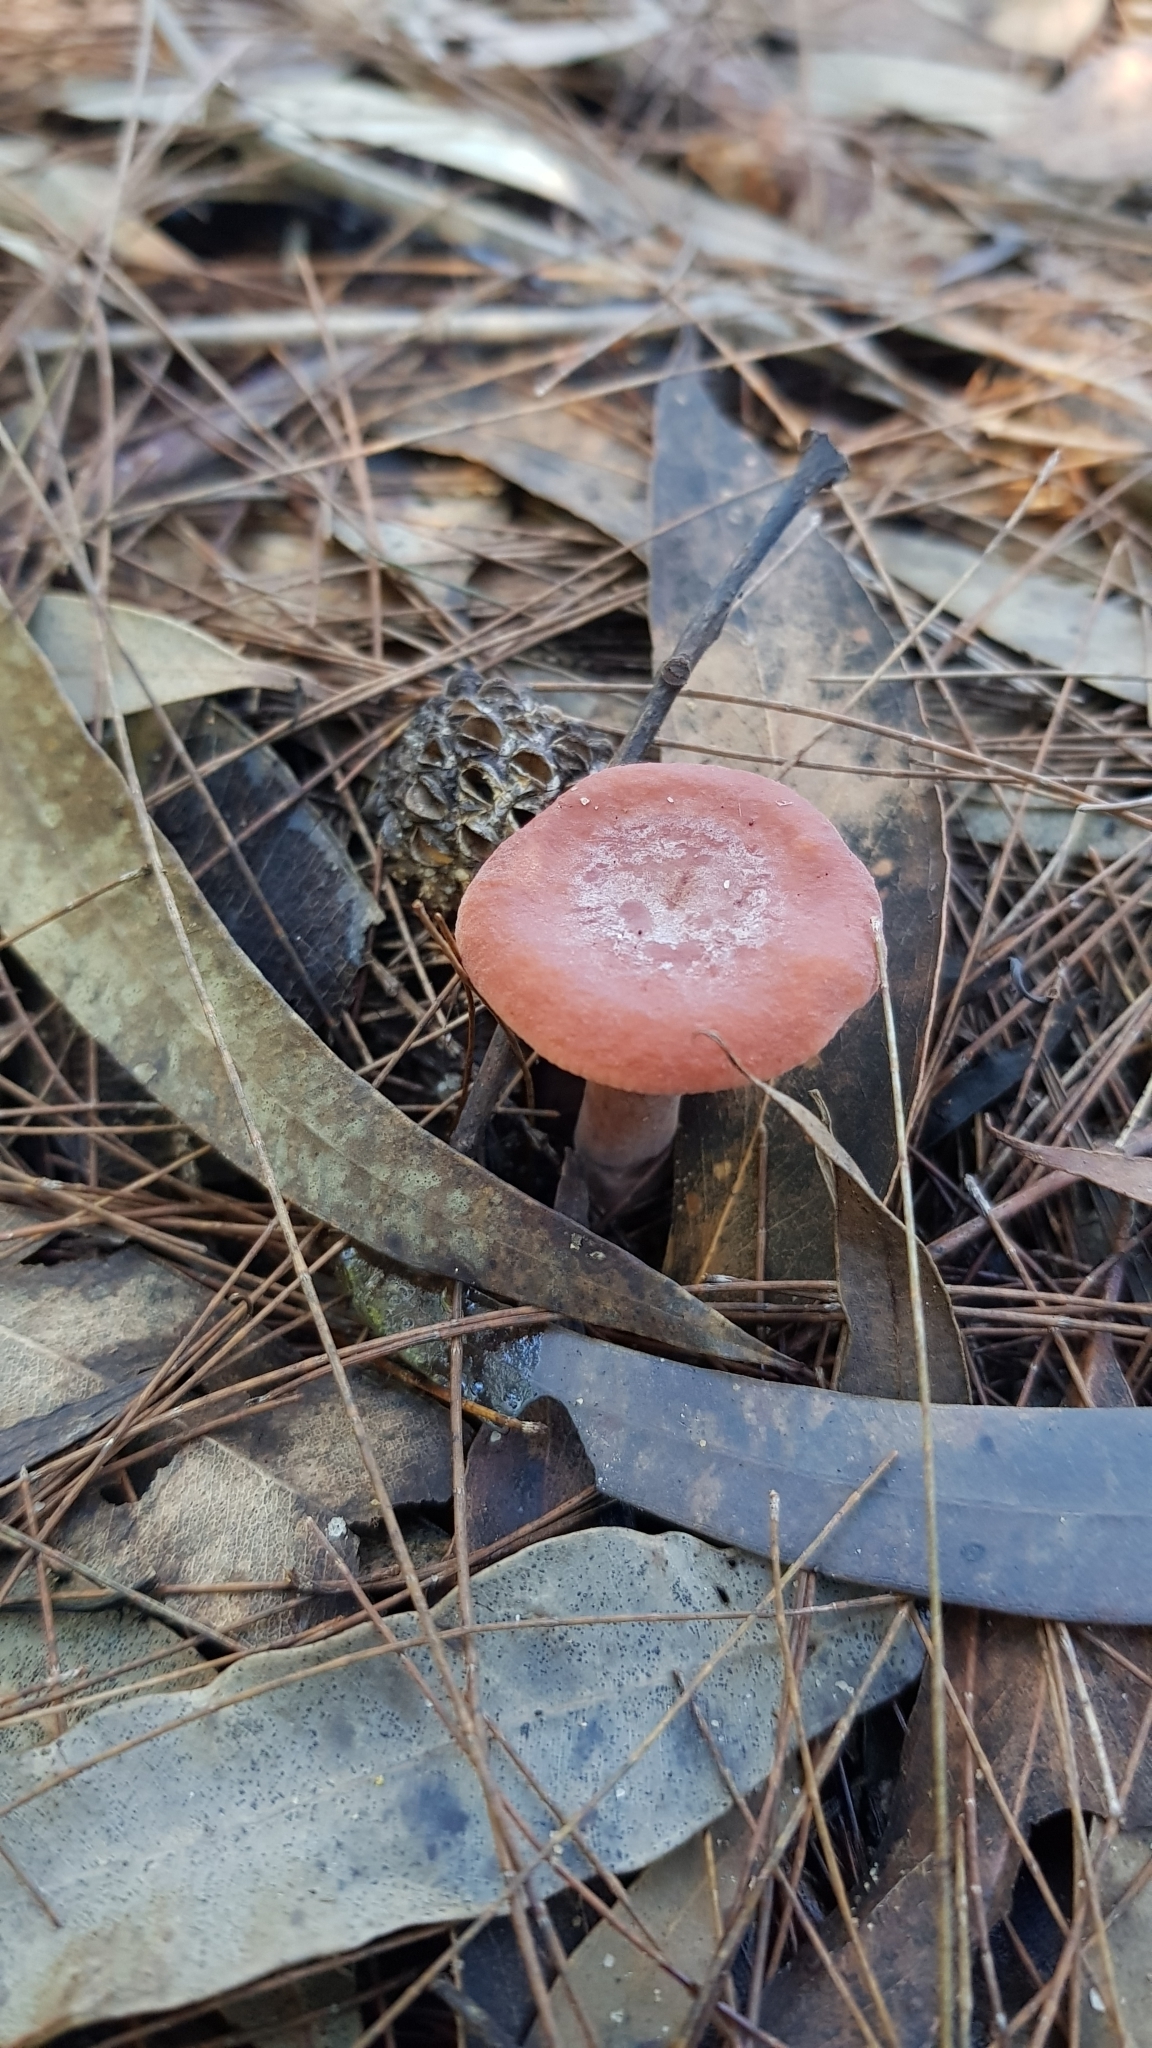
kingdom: Fungi
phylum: Basidiomycota
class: Agaricomycetes
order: Russulales
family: Russulaceae
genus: Lactarius
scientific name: Lactarius eucalypti
